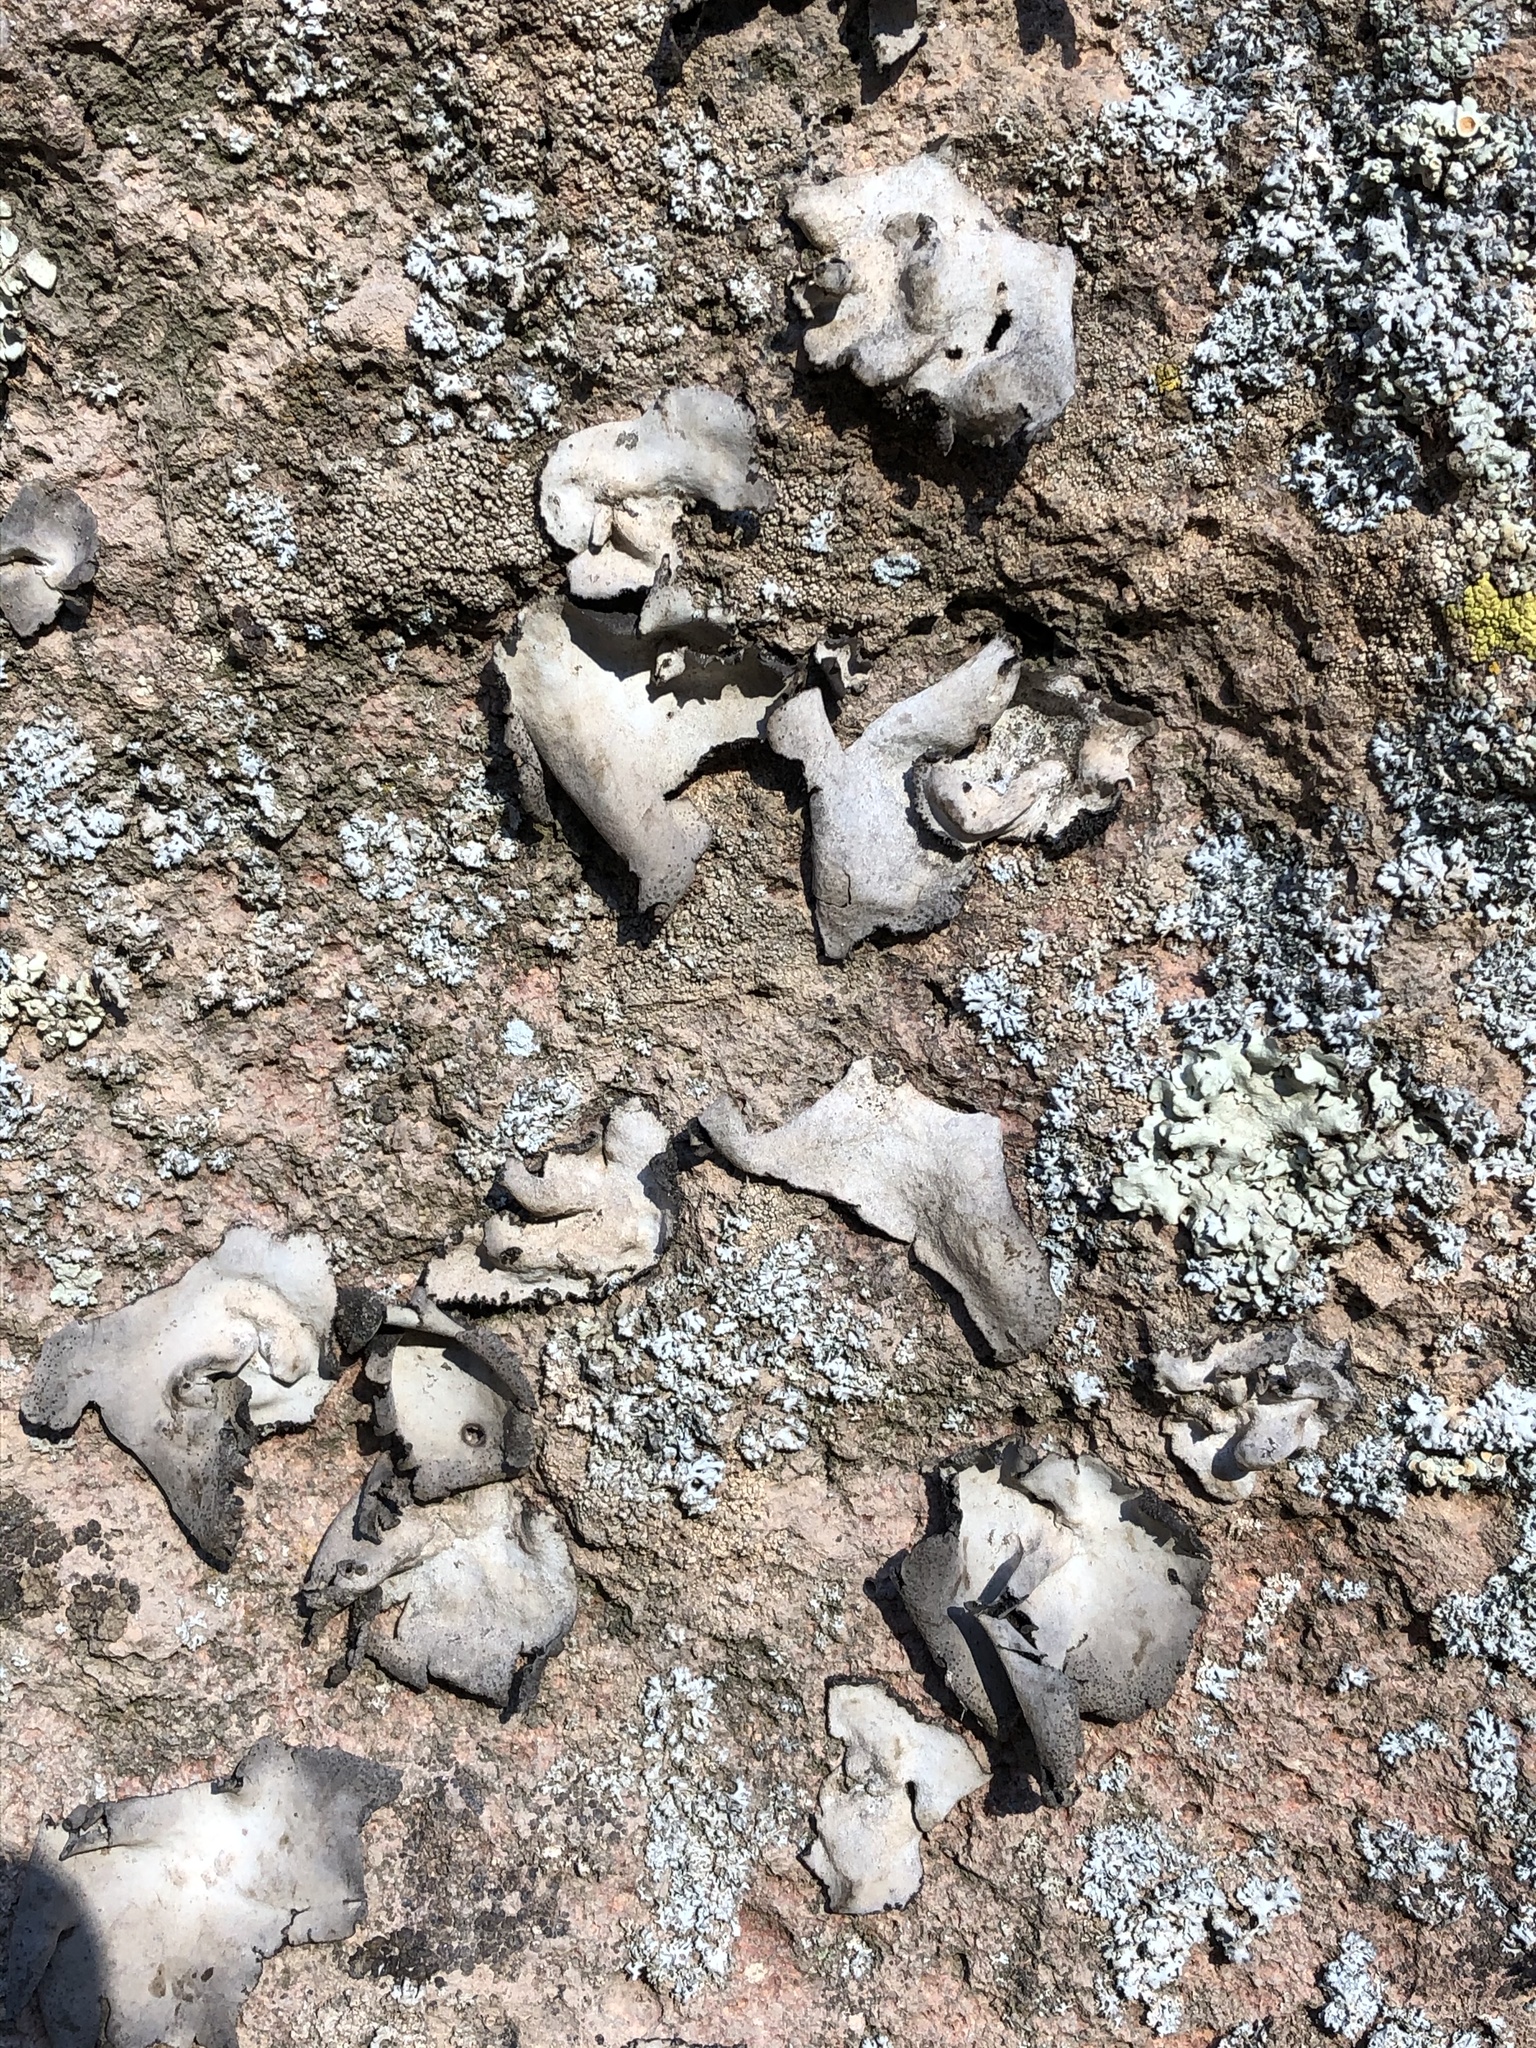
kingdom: Fungi
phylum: Ascomycota
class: Lecanoromycetes
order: Umbilicariales
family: Umbilicariaceae
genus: Umbilicaria
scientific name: Umbilicaria americana
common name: Frosted rock tripe
